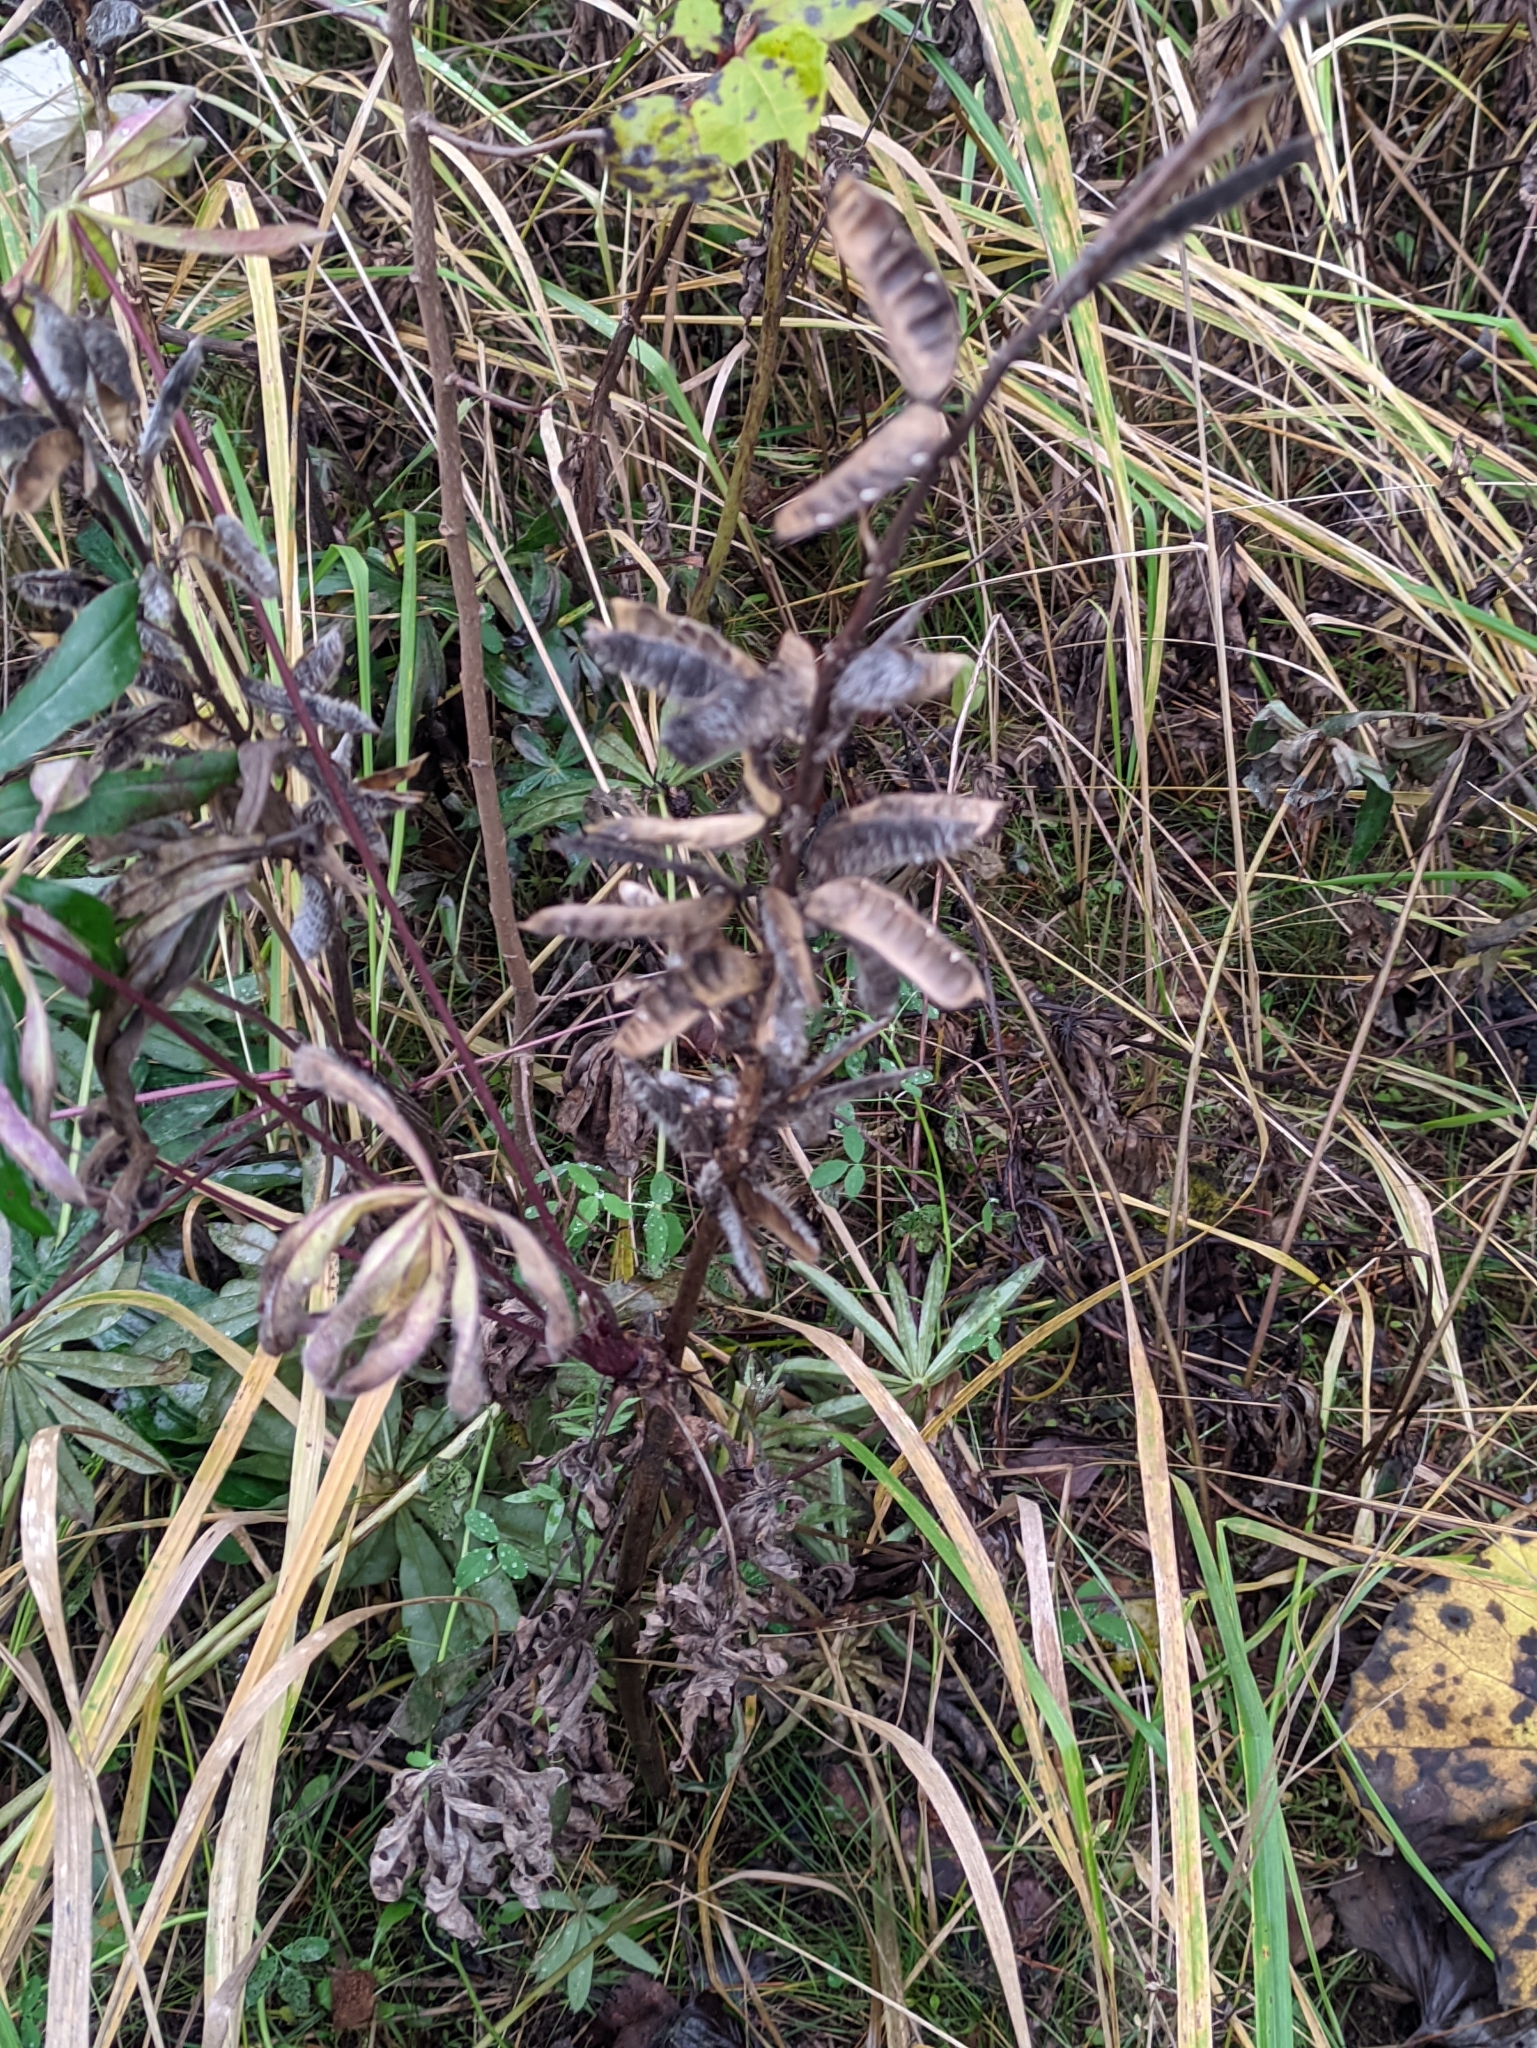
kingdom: Plantae
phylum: Tracheophyta
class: Magnoliopsida
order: Fabales
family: Fabaceae
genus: Lupinus
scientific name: Lupinus polyphyllus
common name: Garden lupin
